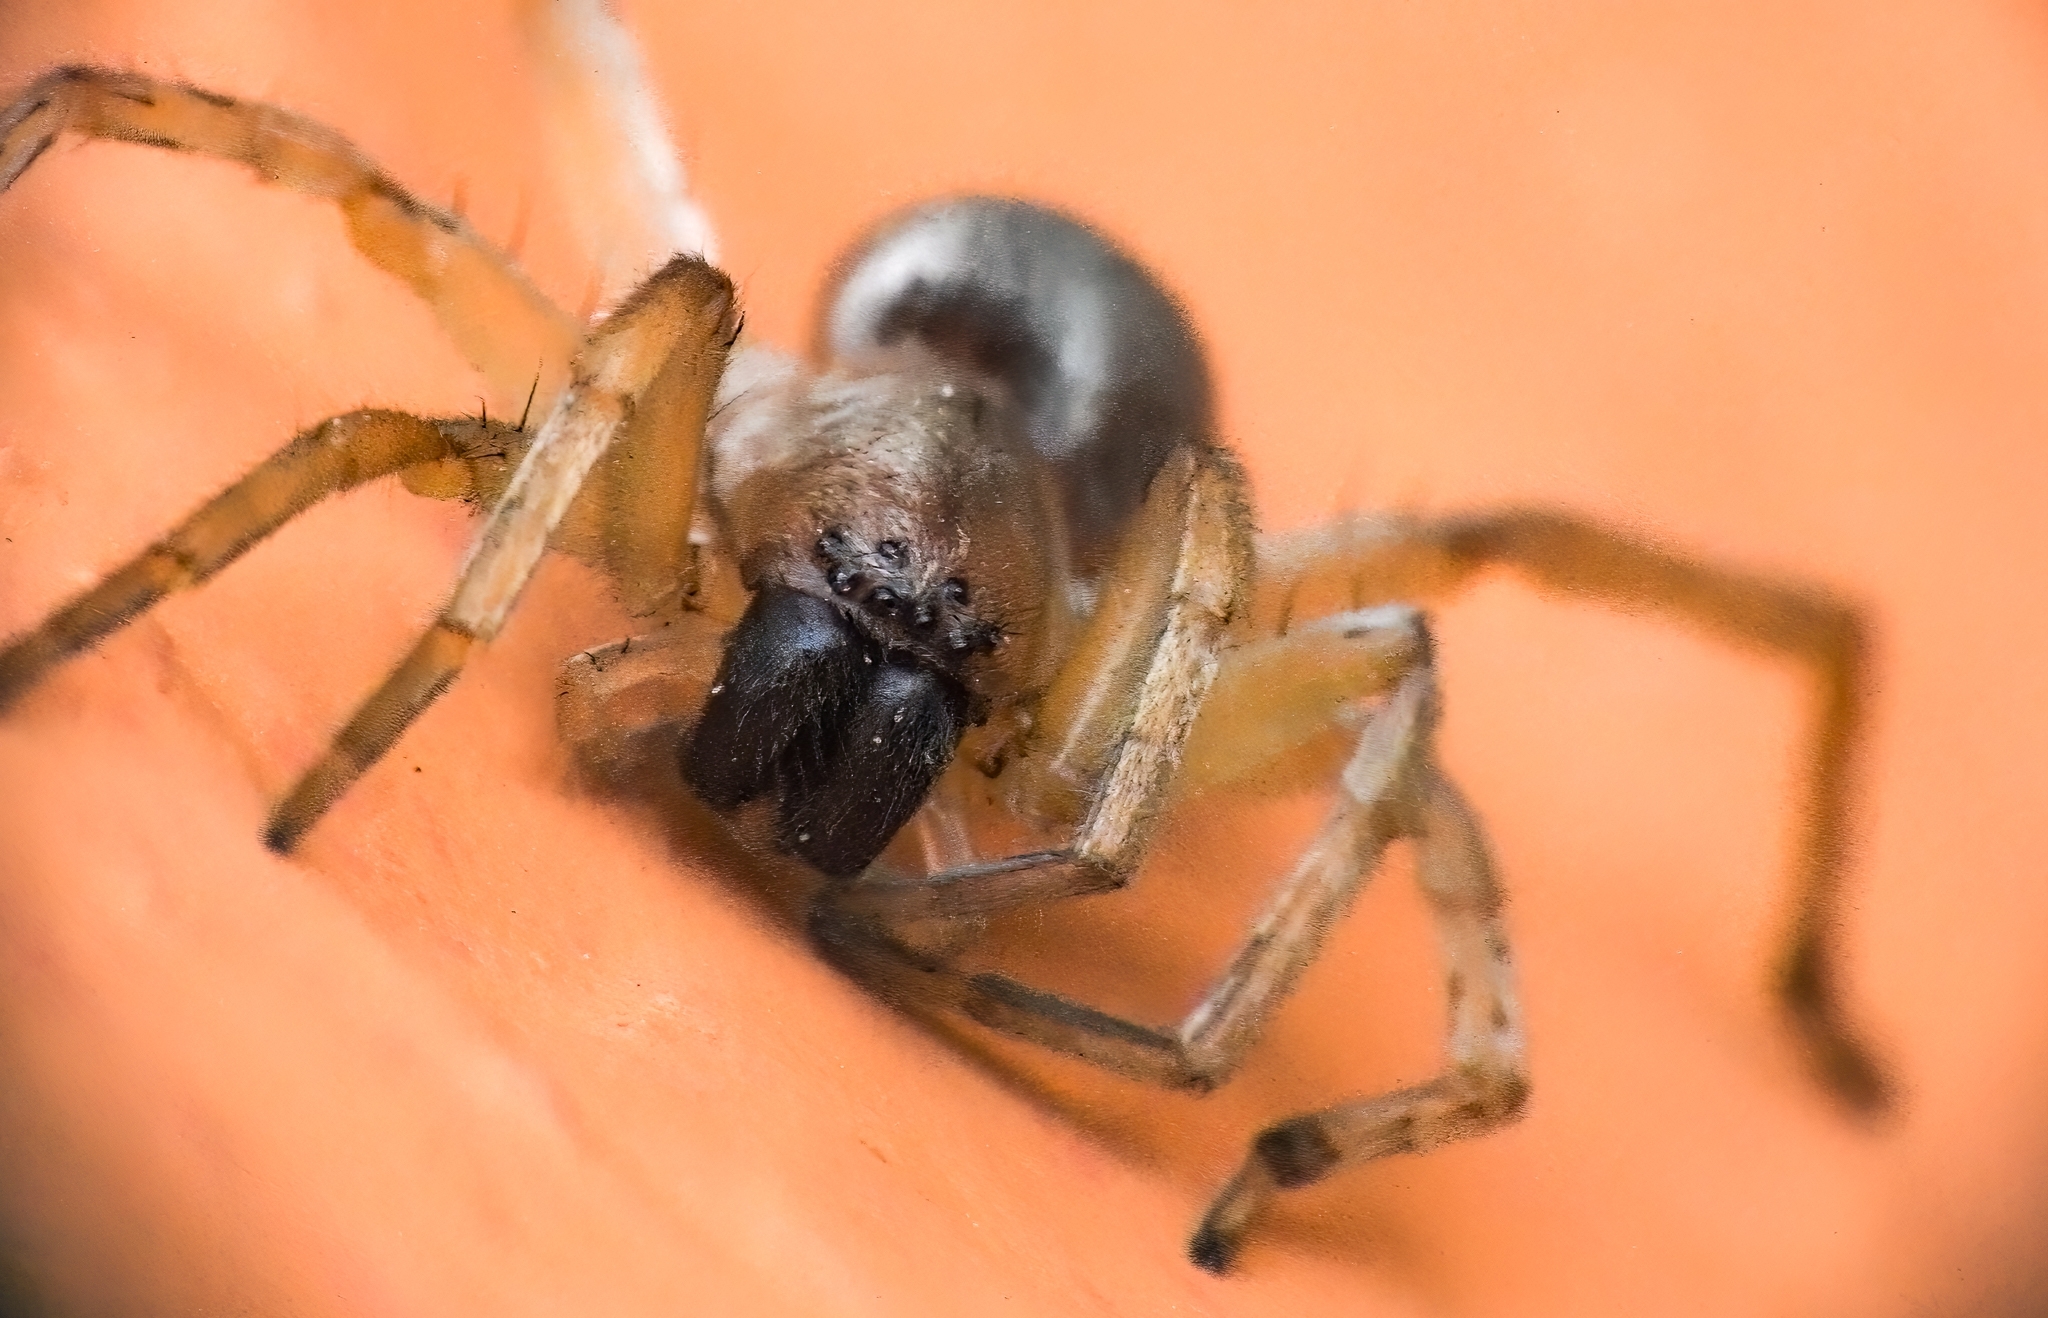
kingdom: Animalia
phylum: Arthropoda
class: Arachnida
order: Araneae
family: Cheiracanthiidae
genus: Cheiracanthium
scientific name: Cheiracanthium mildei
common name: Northern yellow sac spider
